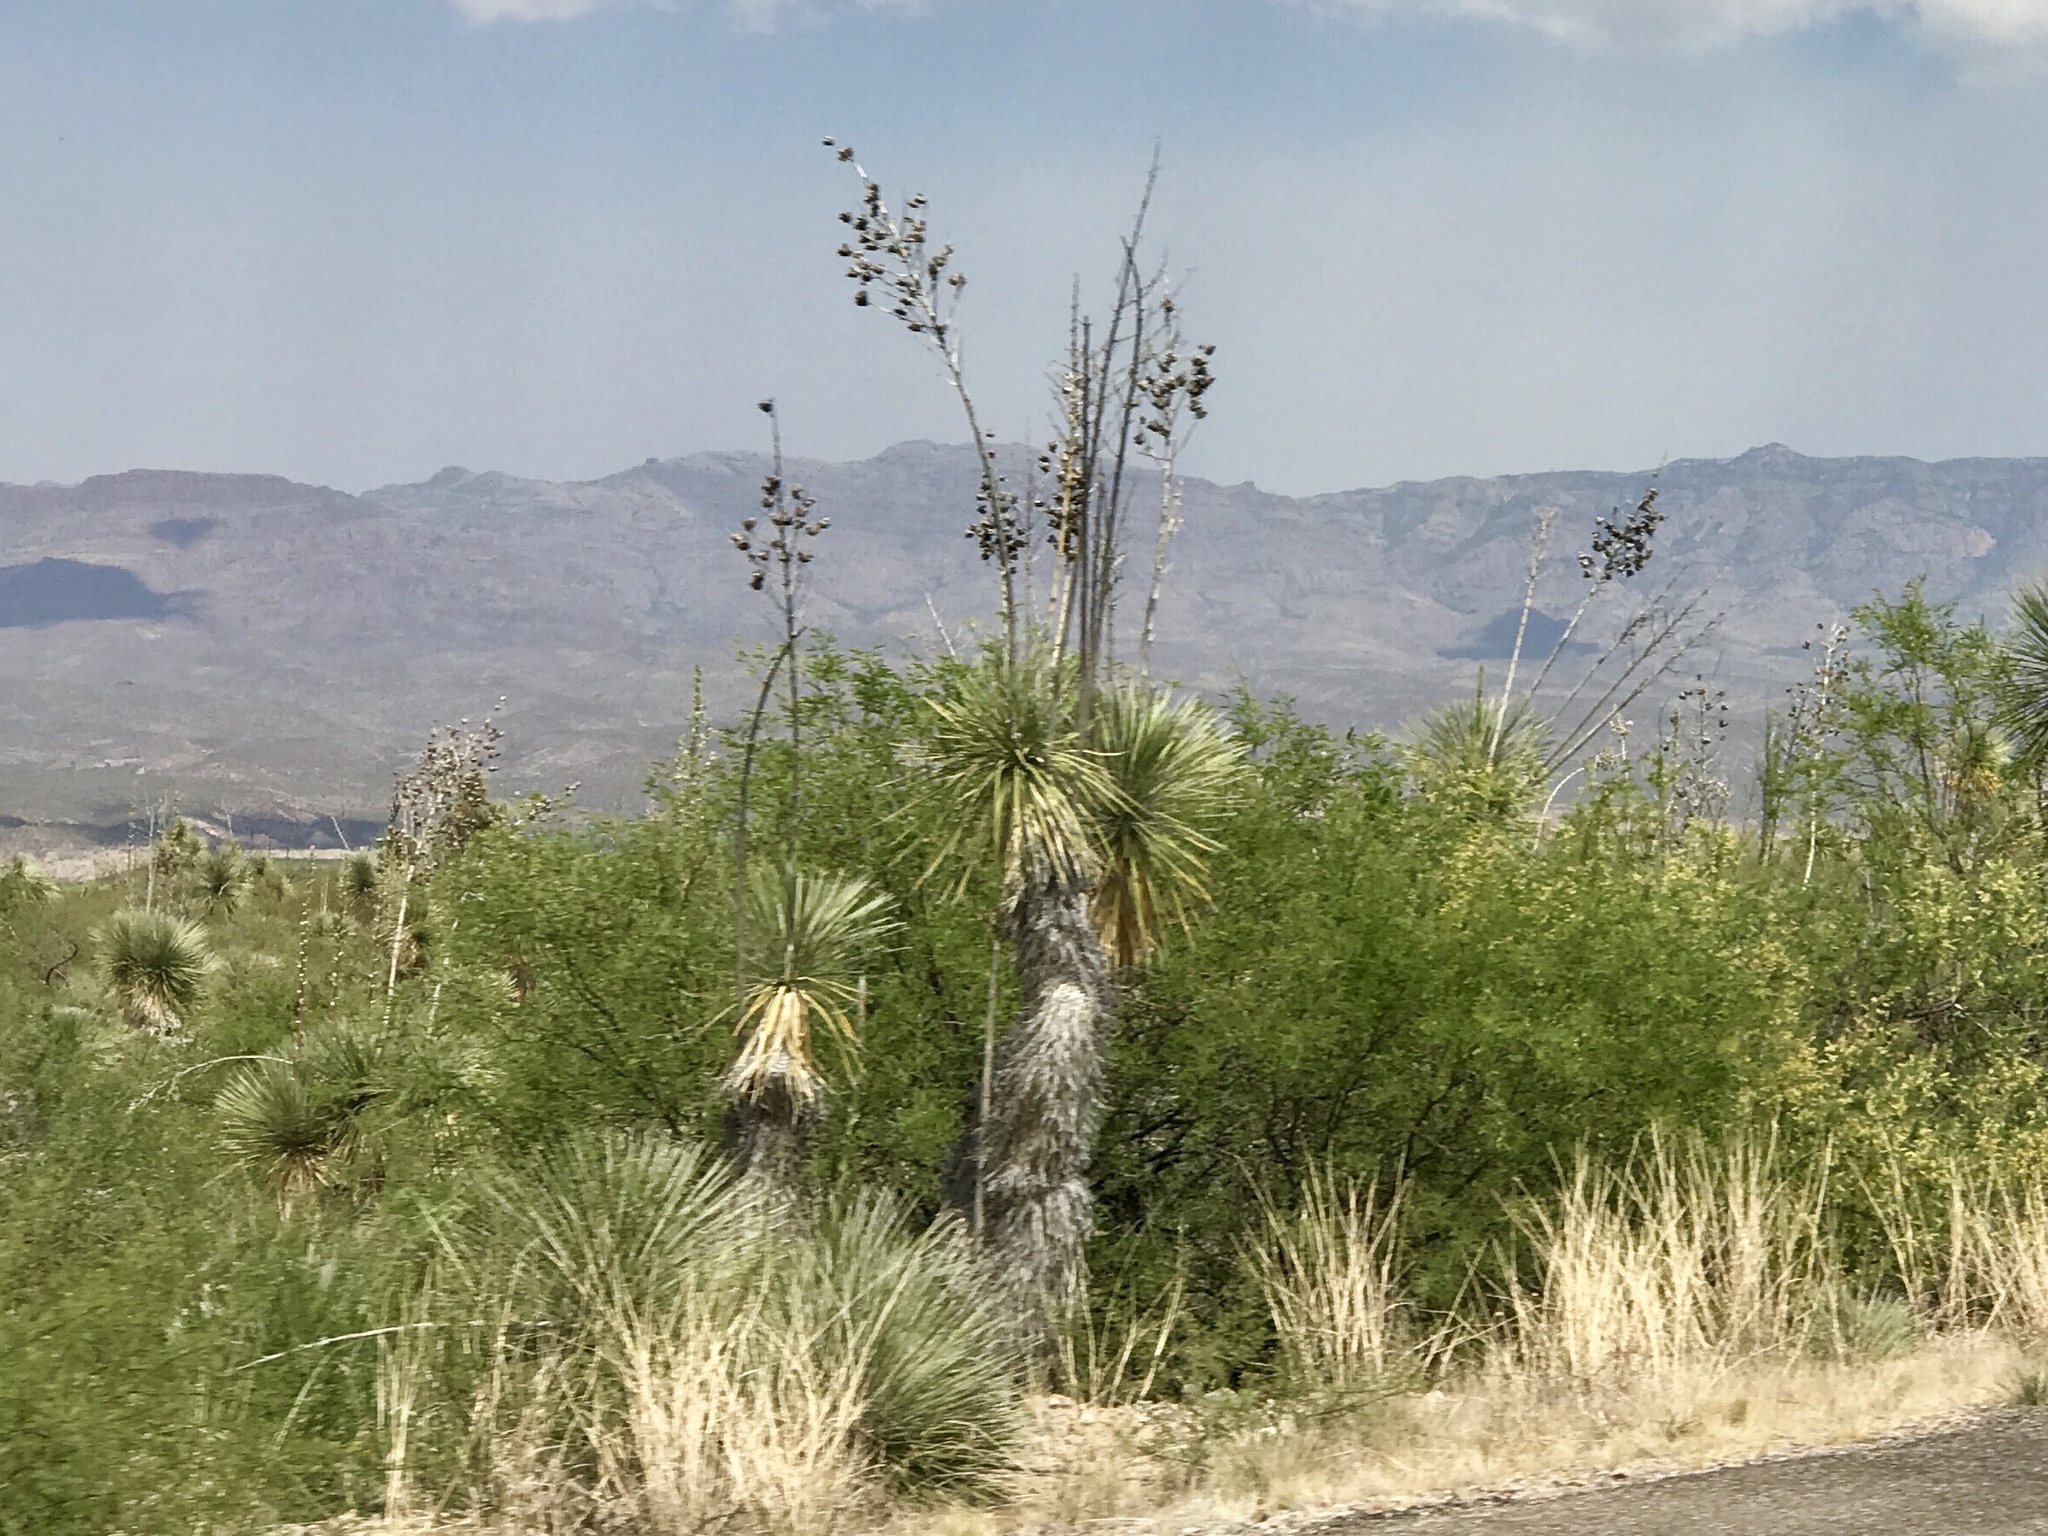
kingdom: Plantae
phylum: Tracheophyta
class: Liliopsida
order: Asparagales
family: Asparagaceae
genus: Yucca
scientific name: Yucca elata
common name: Palmella
